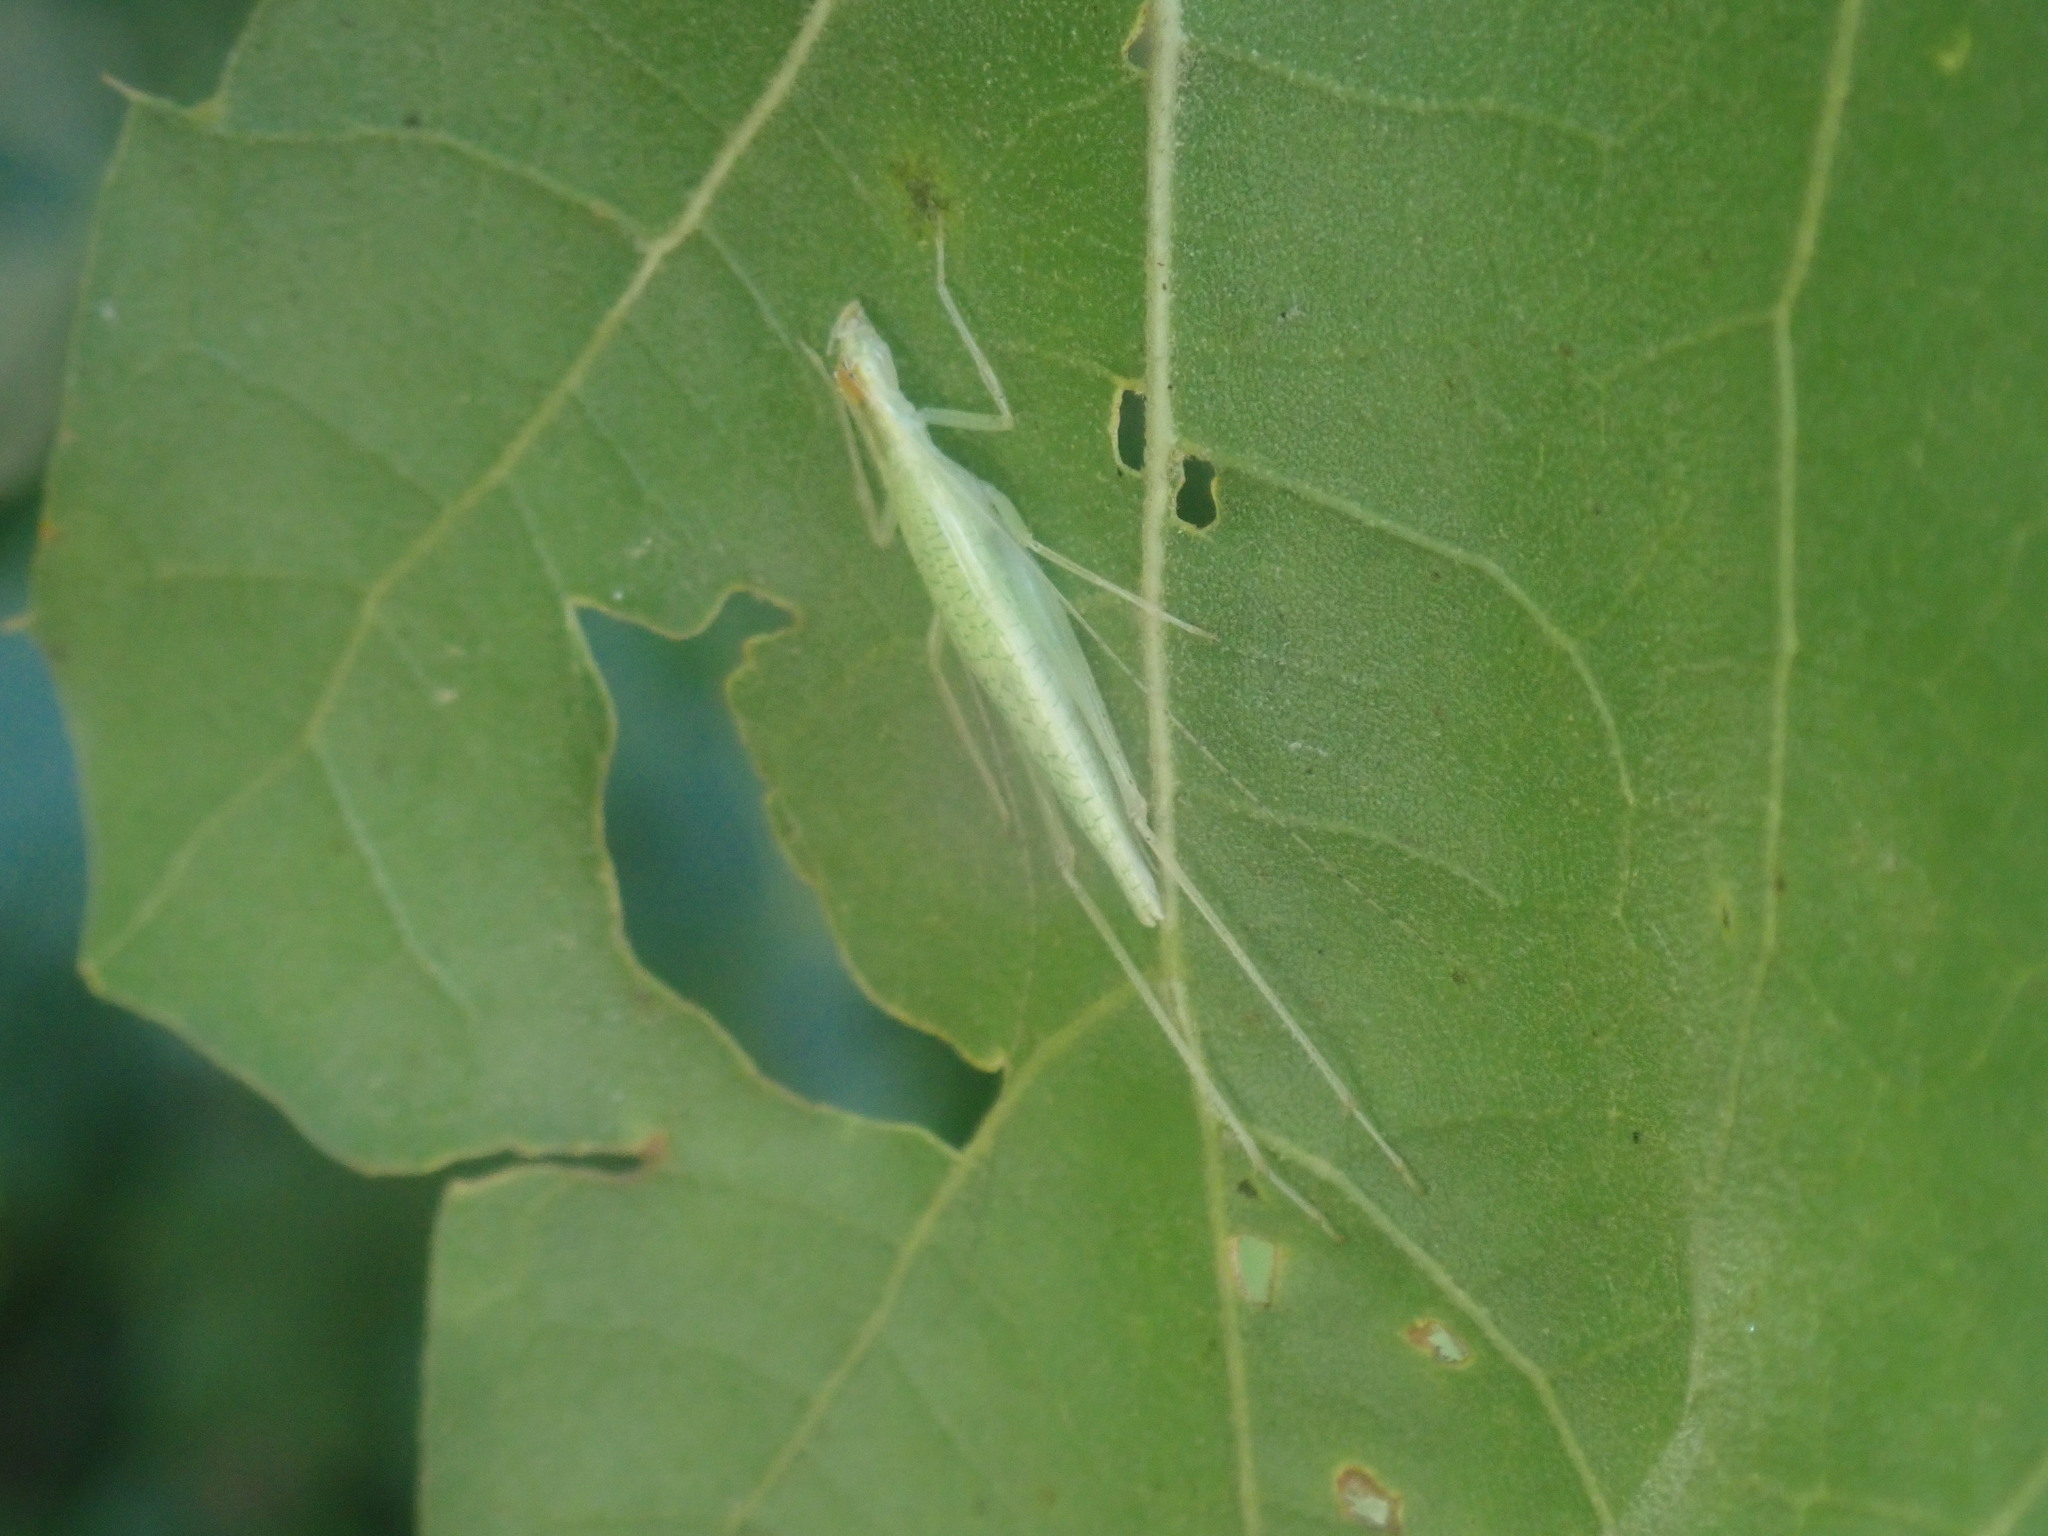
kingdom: Animalia
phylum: Arthropoda
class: Insecta
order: Orthoptera
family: Gryllidae
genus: Oecanthus
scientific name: Oecanthus
